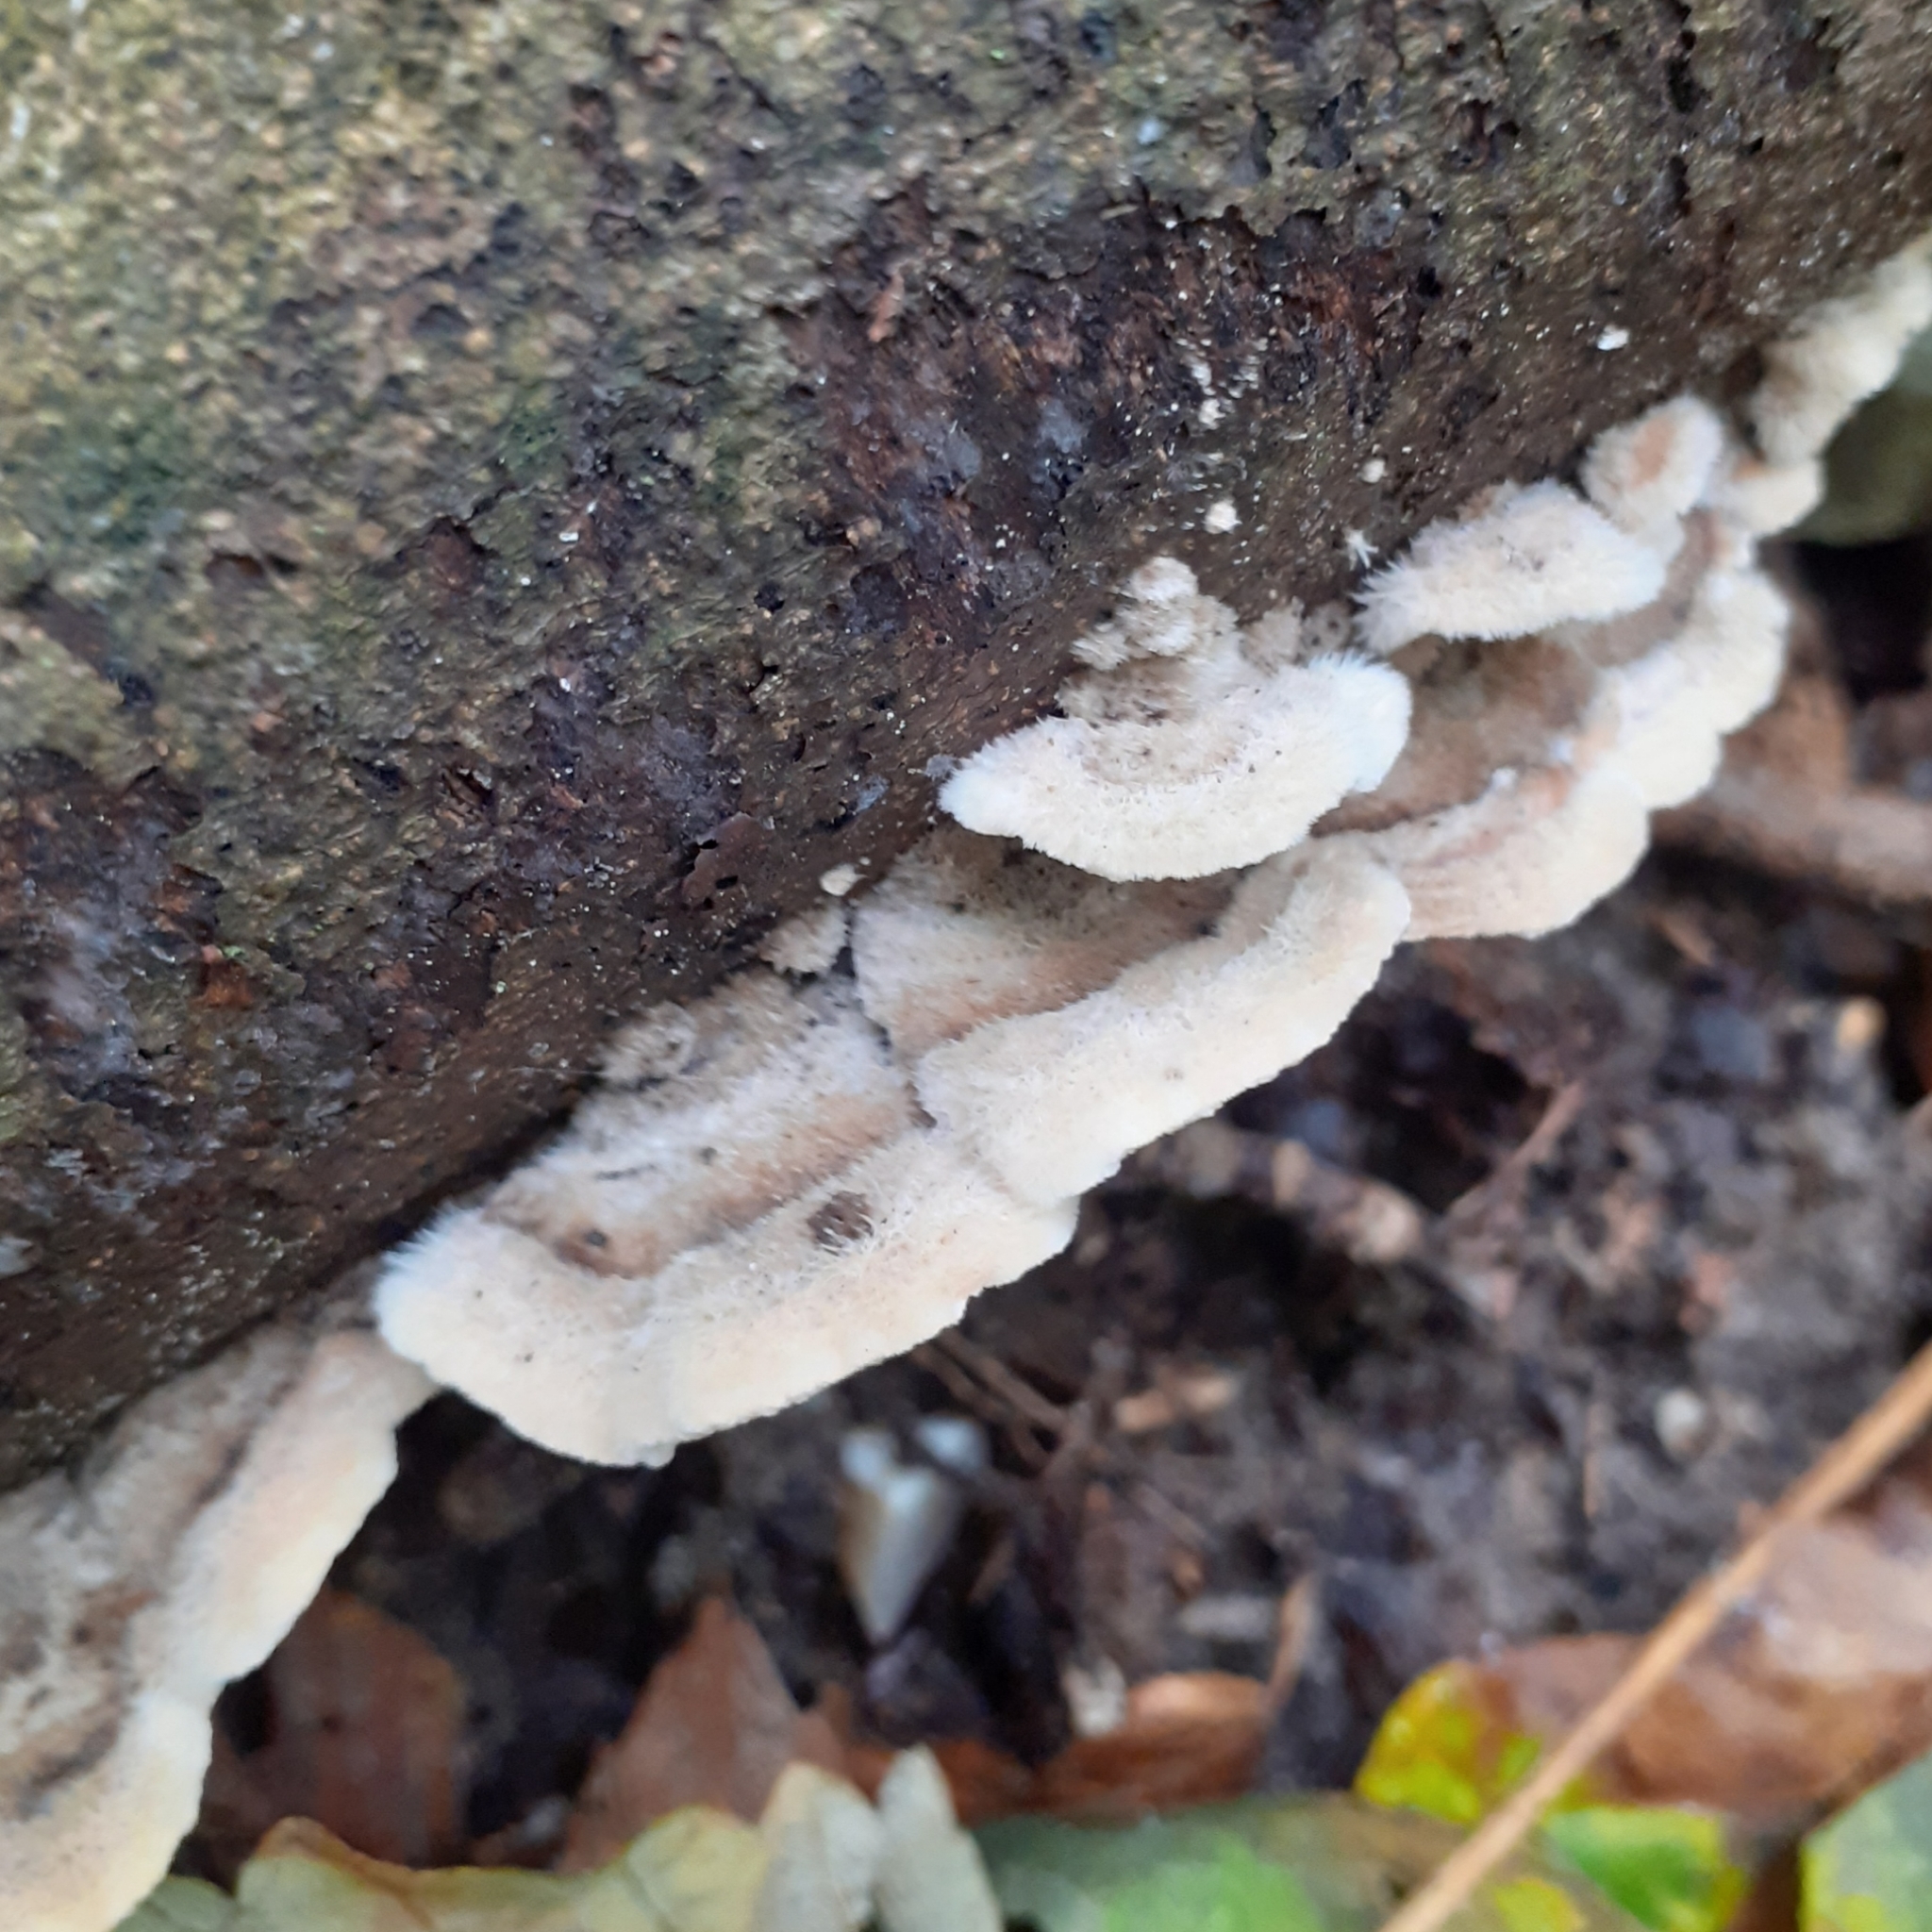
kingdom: Fungi
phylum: Basidiomycota
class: Agaricomycetes
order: Polyporales
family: Polyporaceae
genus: Trametes
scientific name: Trametes hirsuta
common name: Hairy bracket
